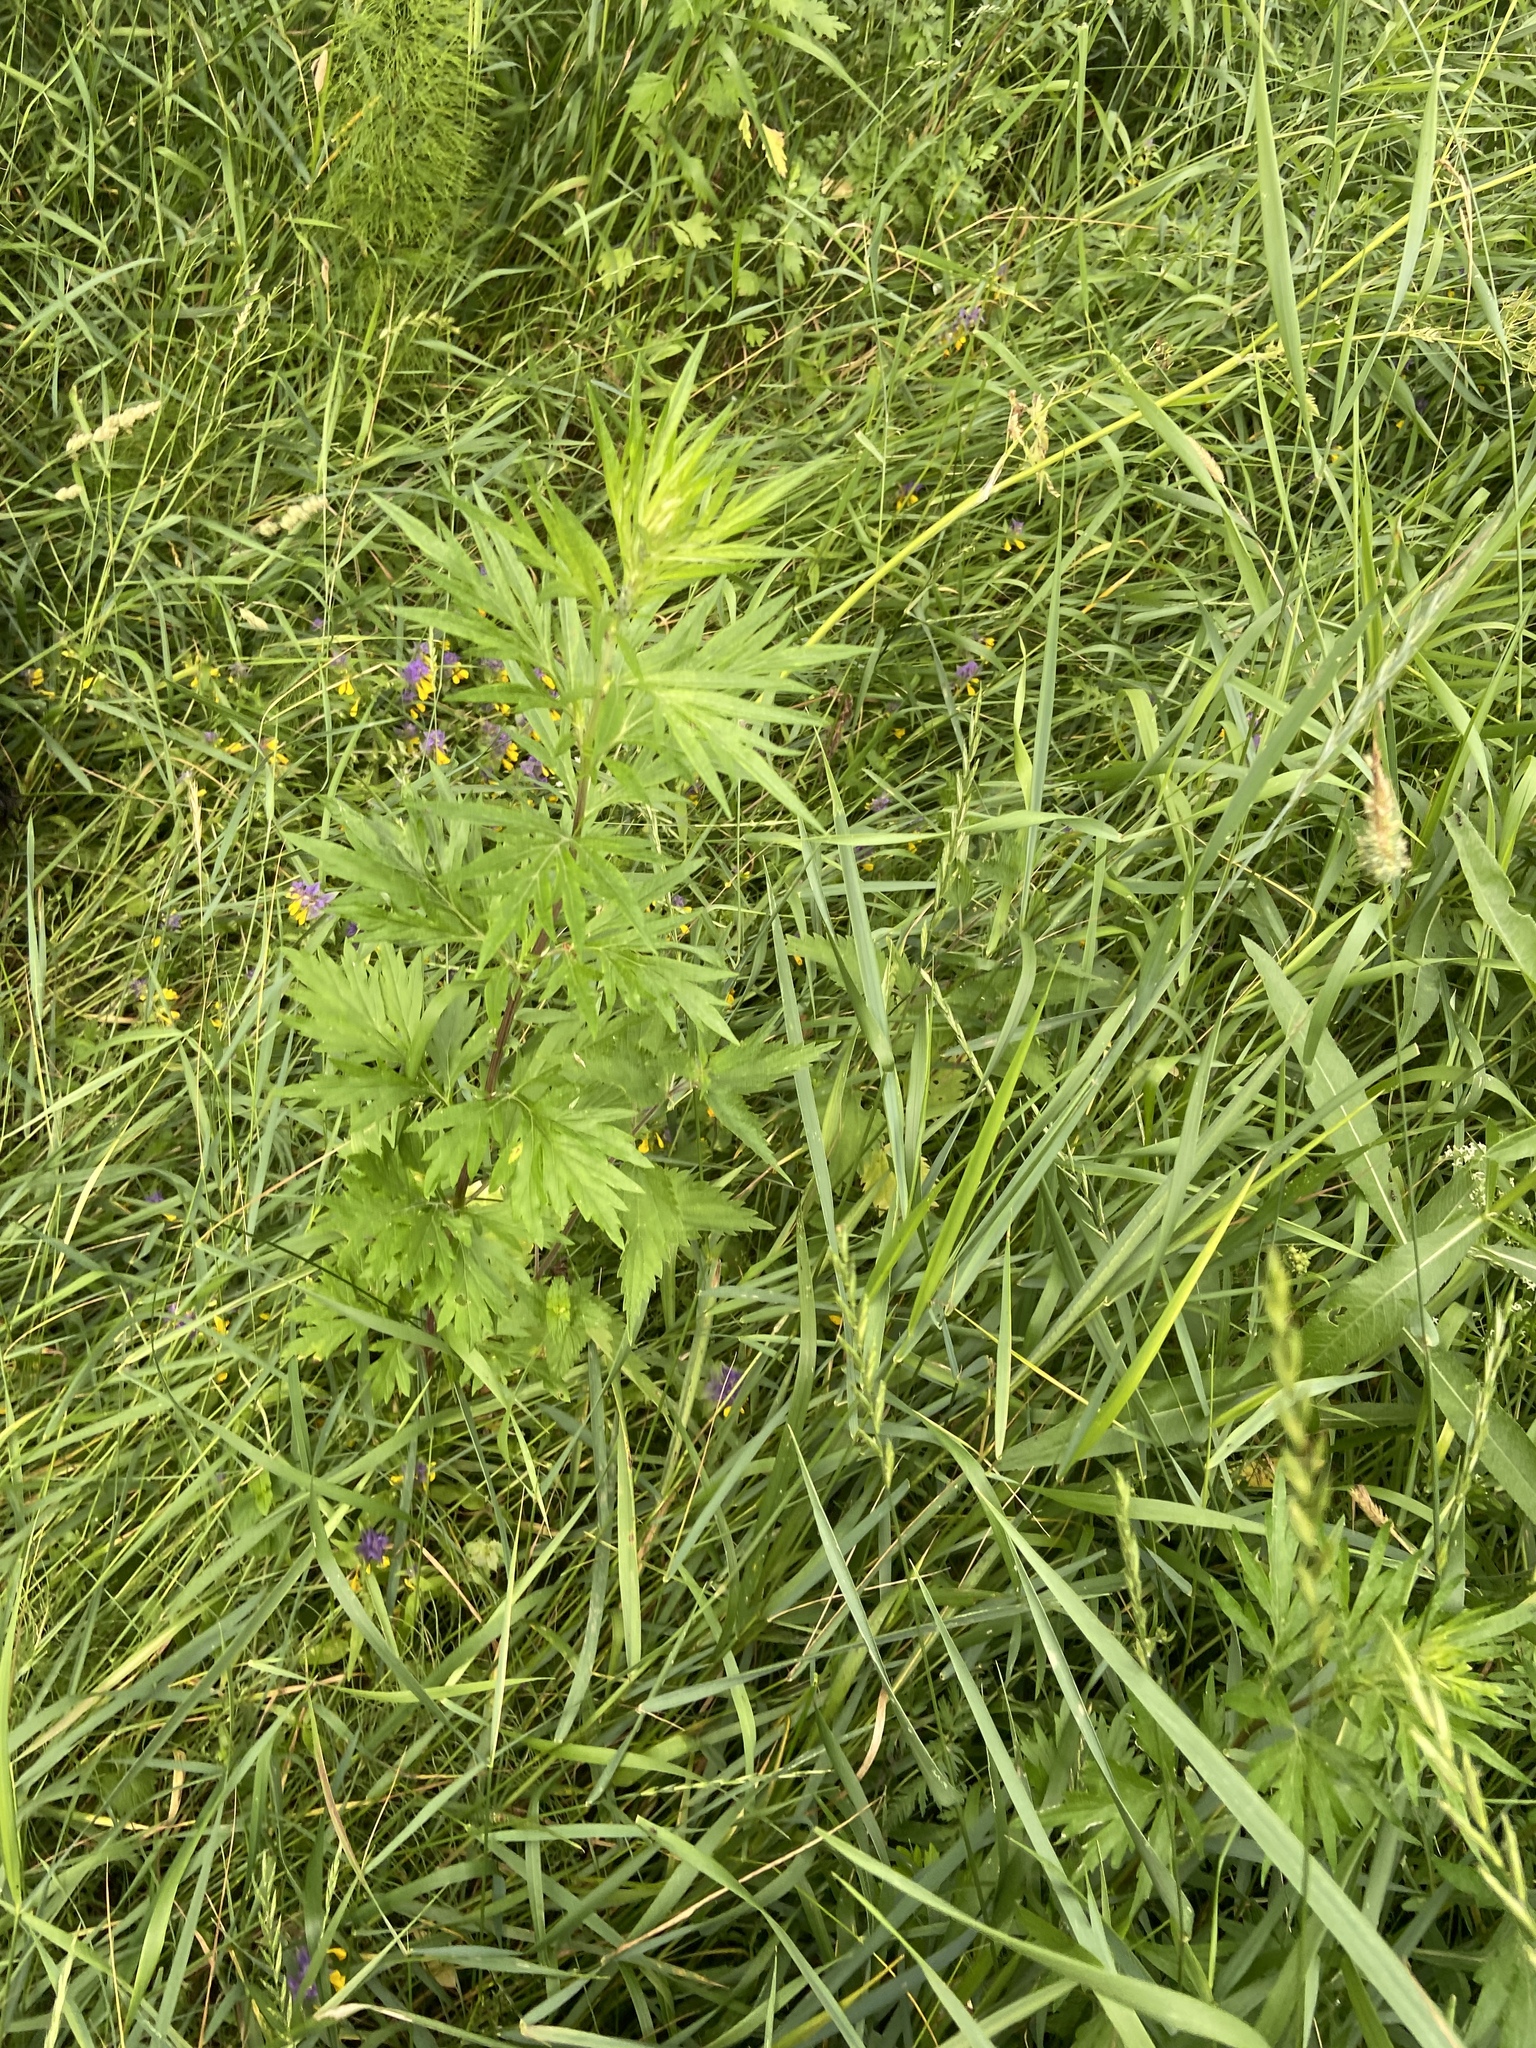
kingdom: Plantae
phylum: Tracheophyta
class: Magnoliopsida
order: Asterales
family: Asteraceae
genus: Artemisia
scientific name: Artemisia vulgaris
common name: Mugwort
